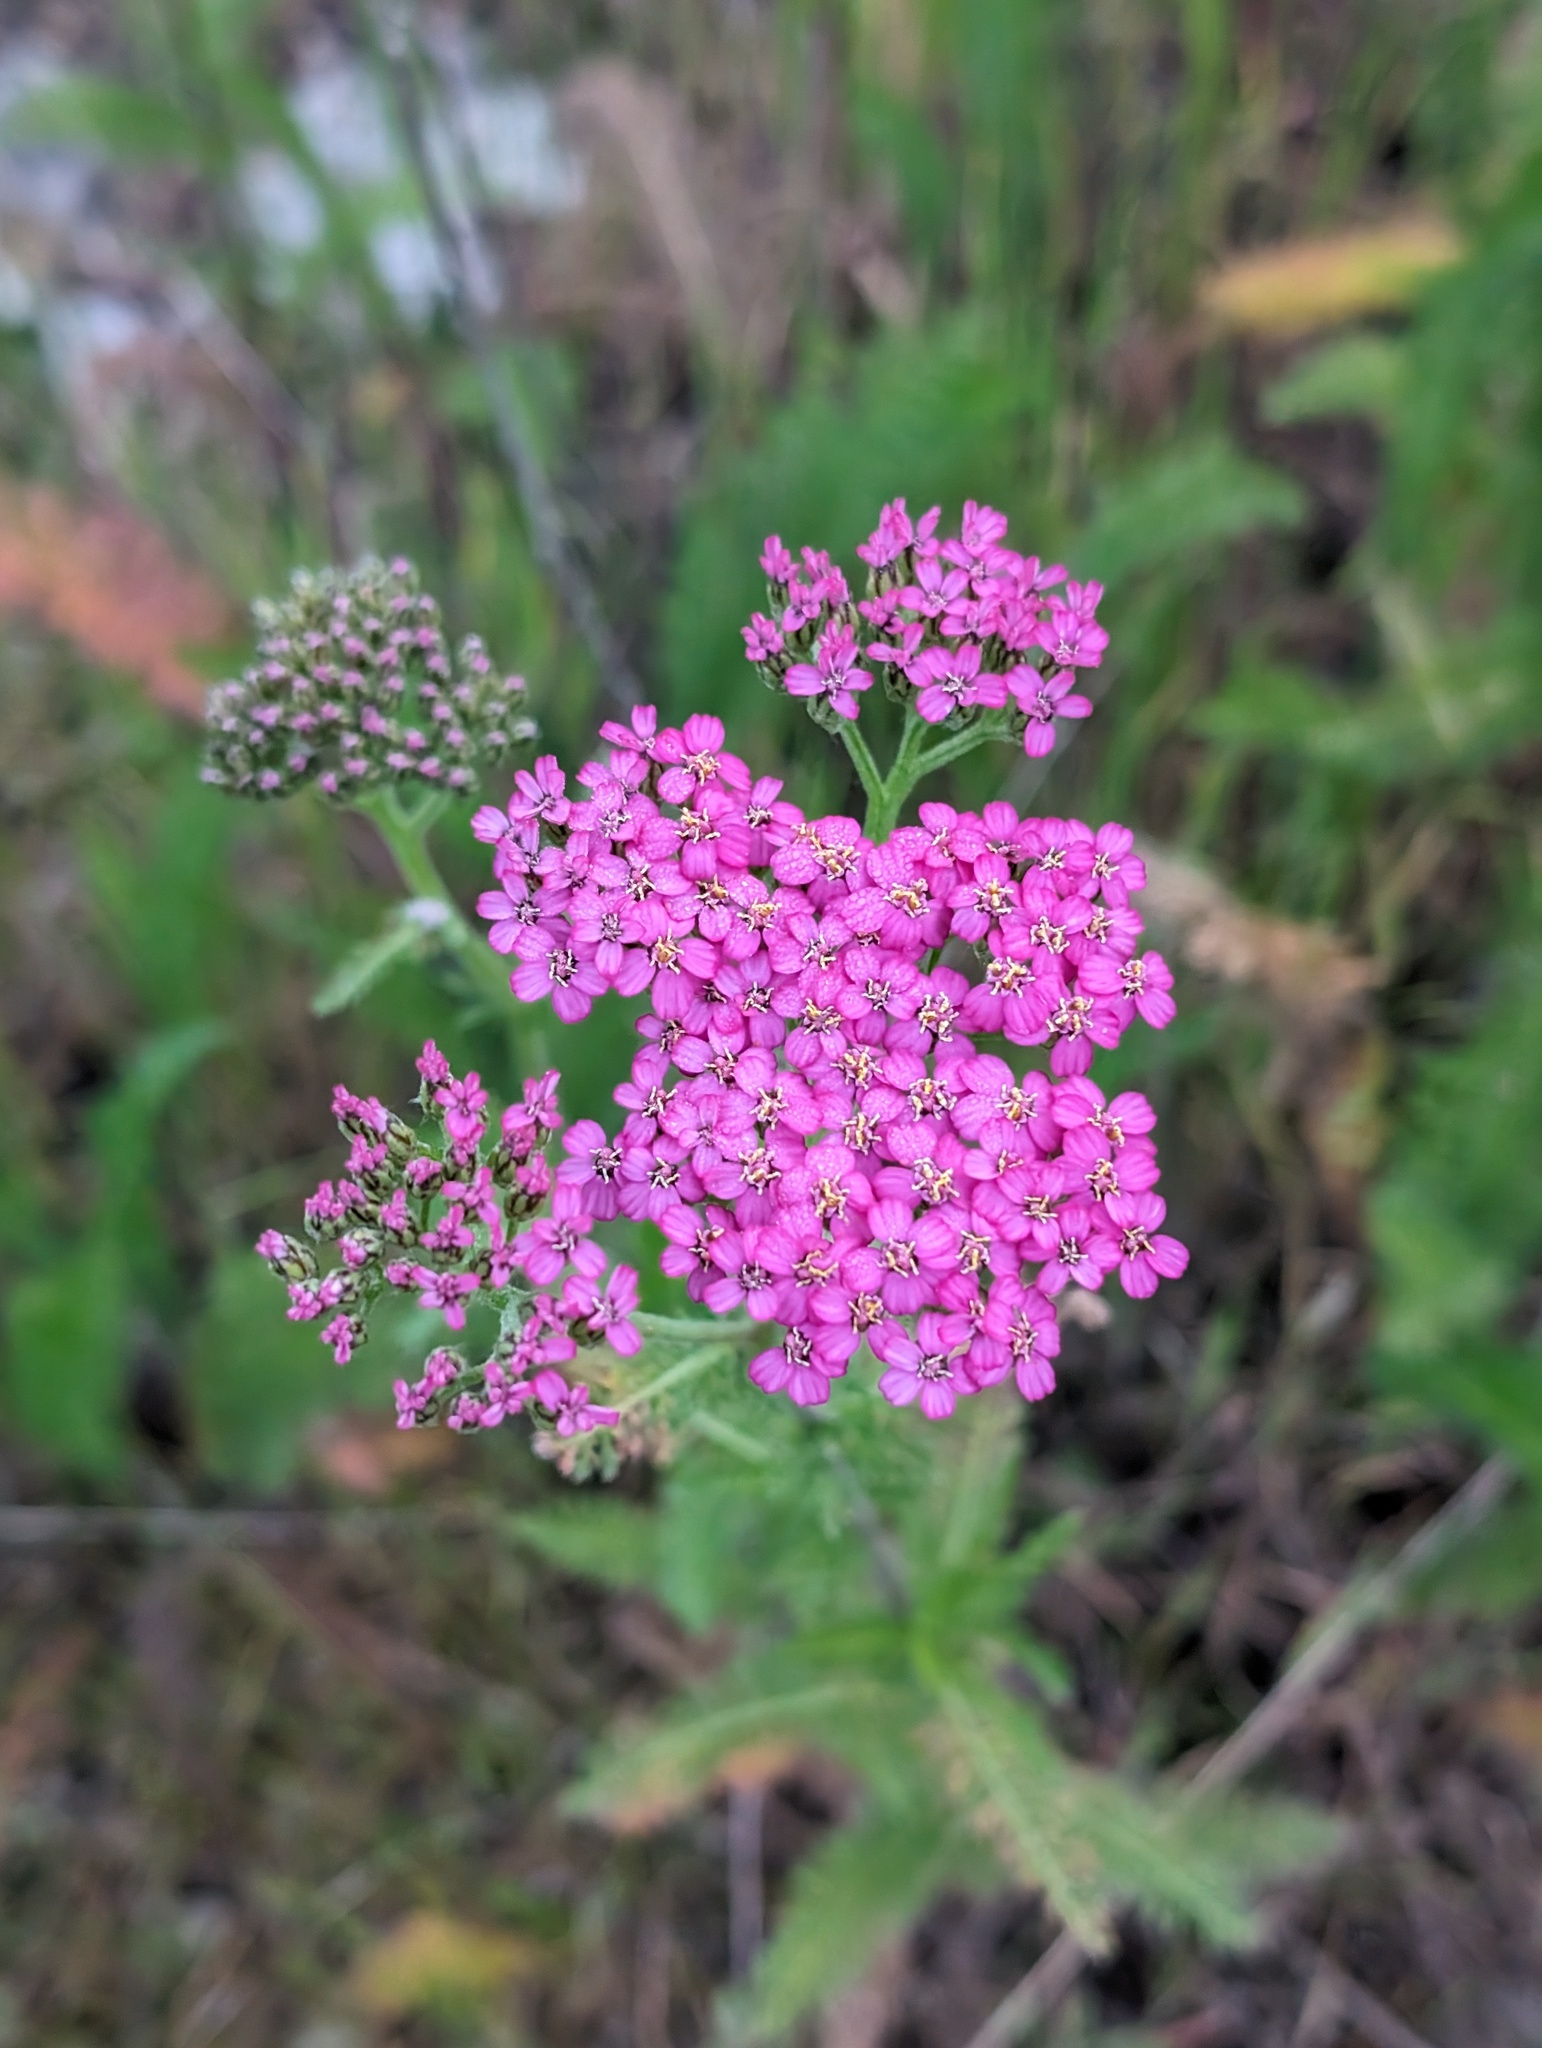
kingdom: Plantae
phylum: Tracheophyta
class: Magnoliopsida
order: Asterales
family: Asteraceae
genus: Achillea
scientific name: Achillea millefolium
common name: Yarrow
